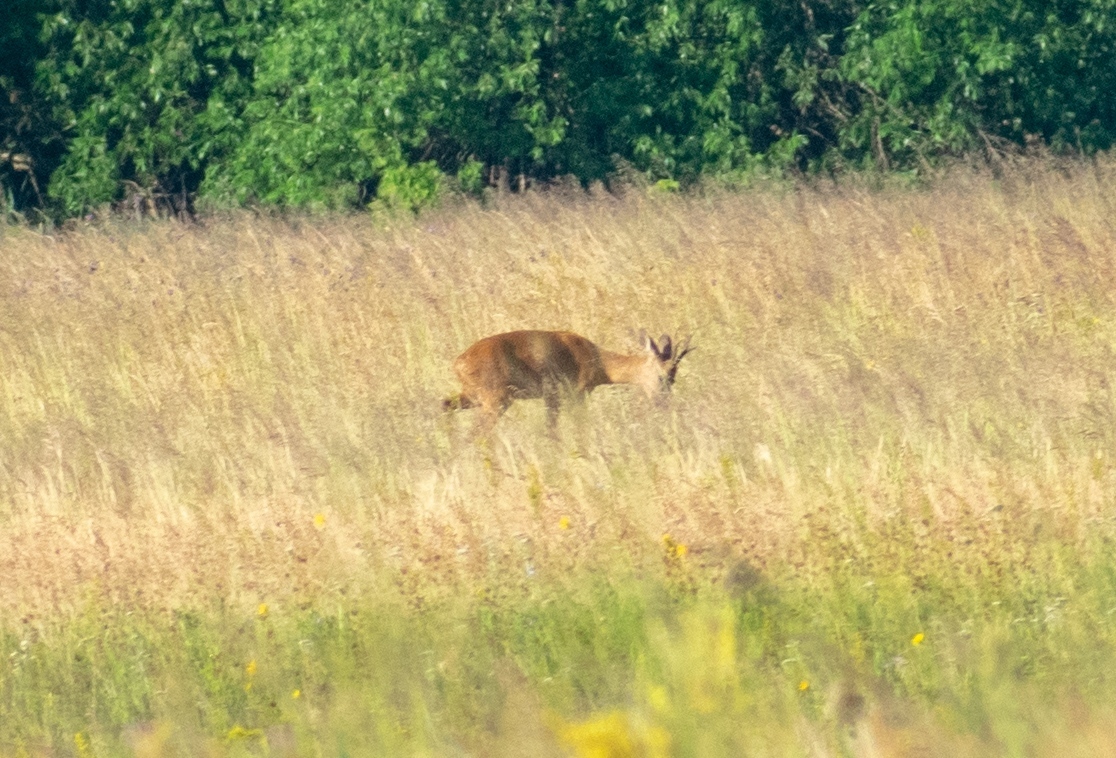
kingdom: Animalia
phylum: Chordata
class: Mammalia
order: Artiodactyla
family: Cervidae
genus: Capreolus
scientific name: Capreolus capreolus
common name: Western roe deer
